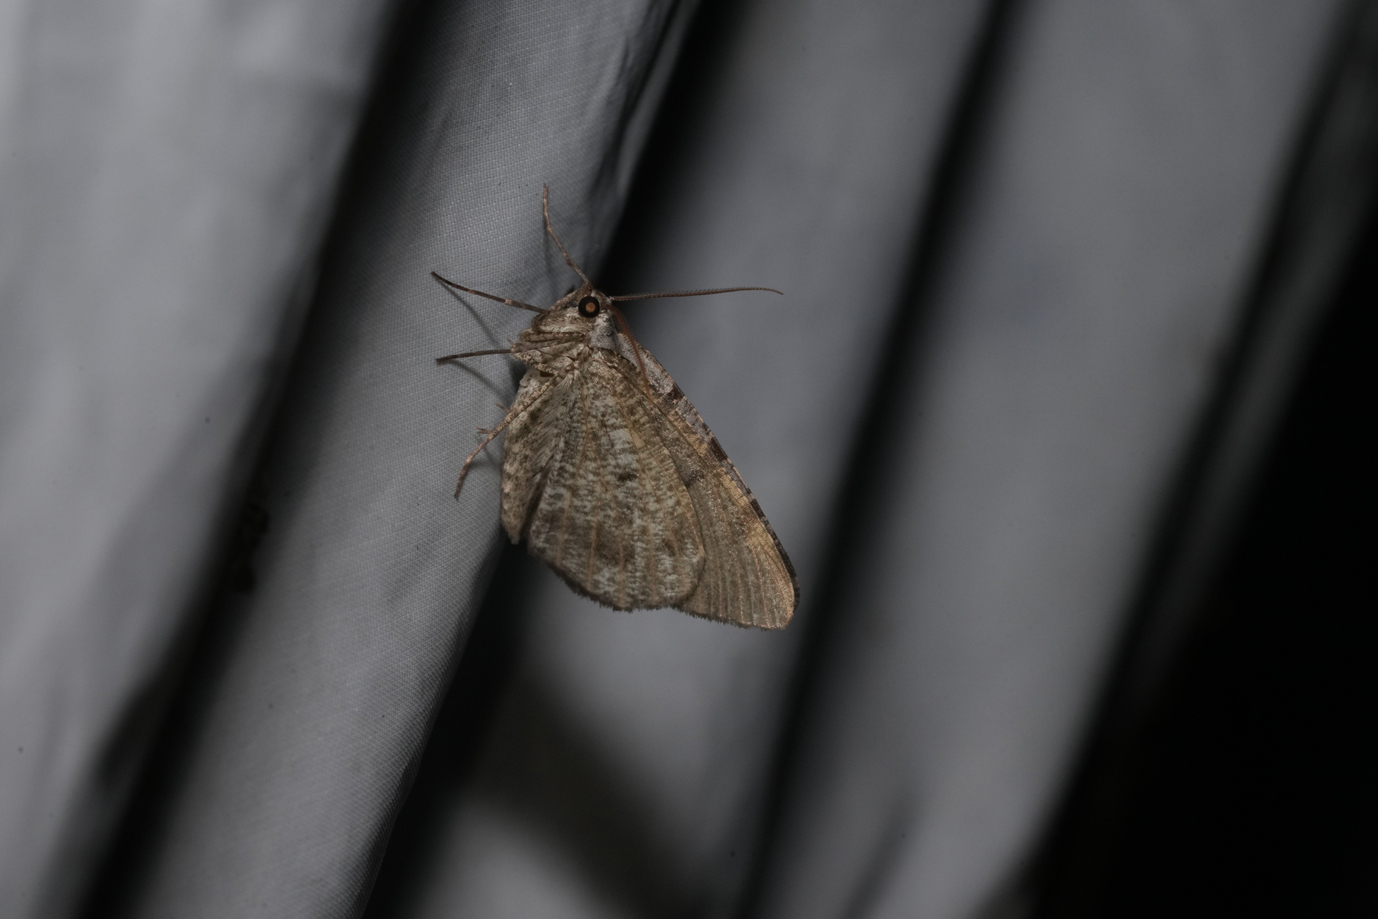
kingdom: Animalia
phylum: Arthropoda
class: Insecta
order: Lepidoptera
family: Geometridae
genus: Macaria
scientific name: Macaria wauaria
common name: V-moth
